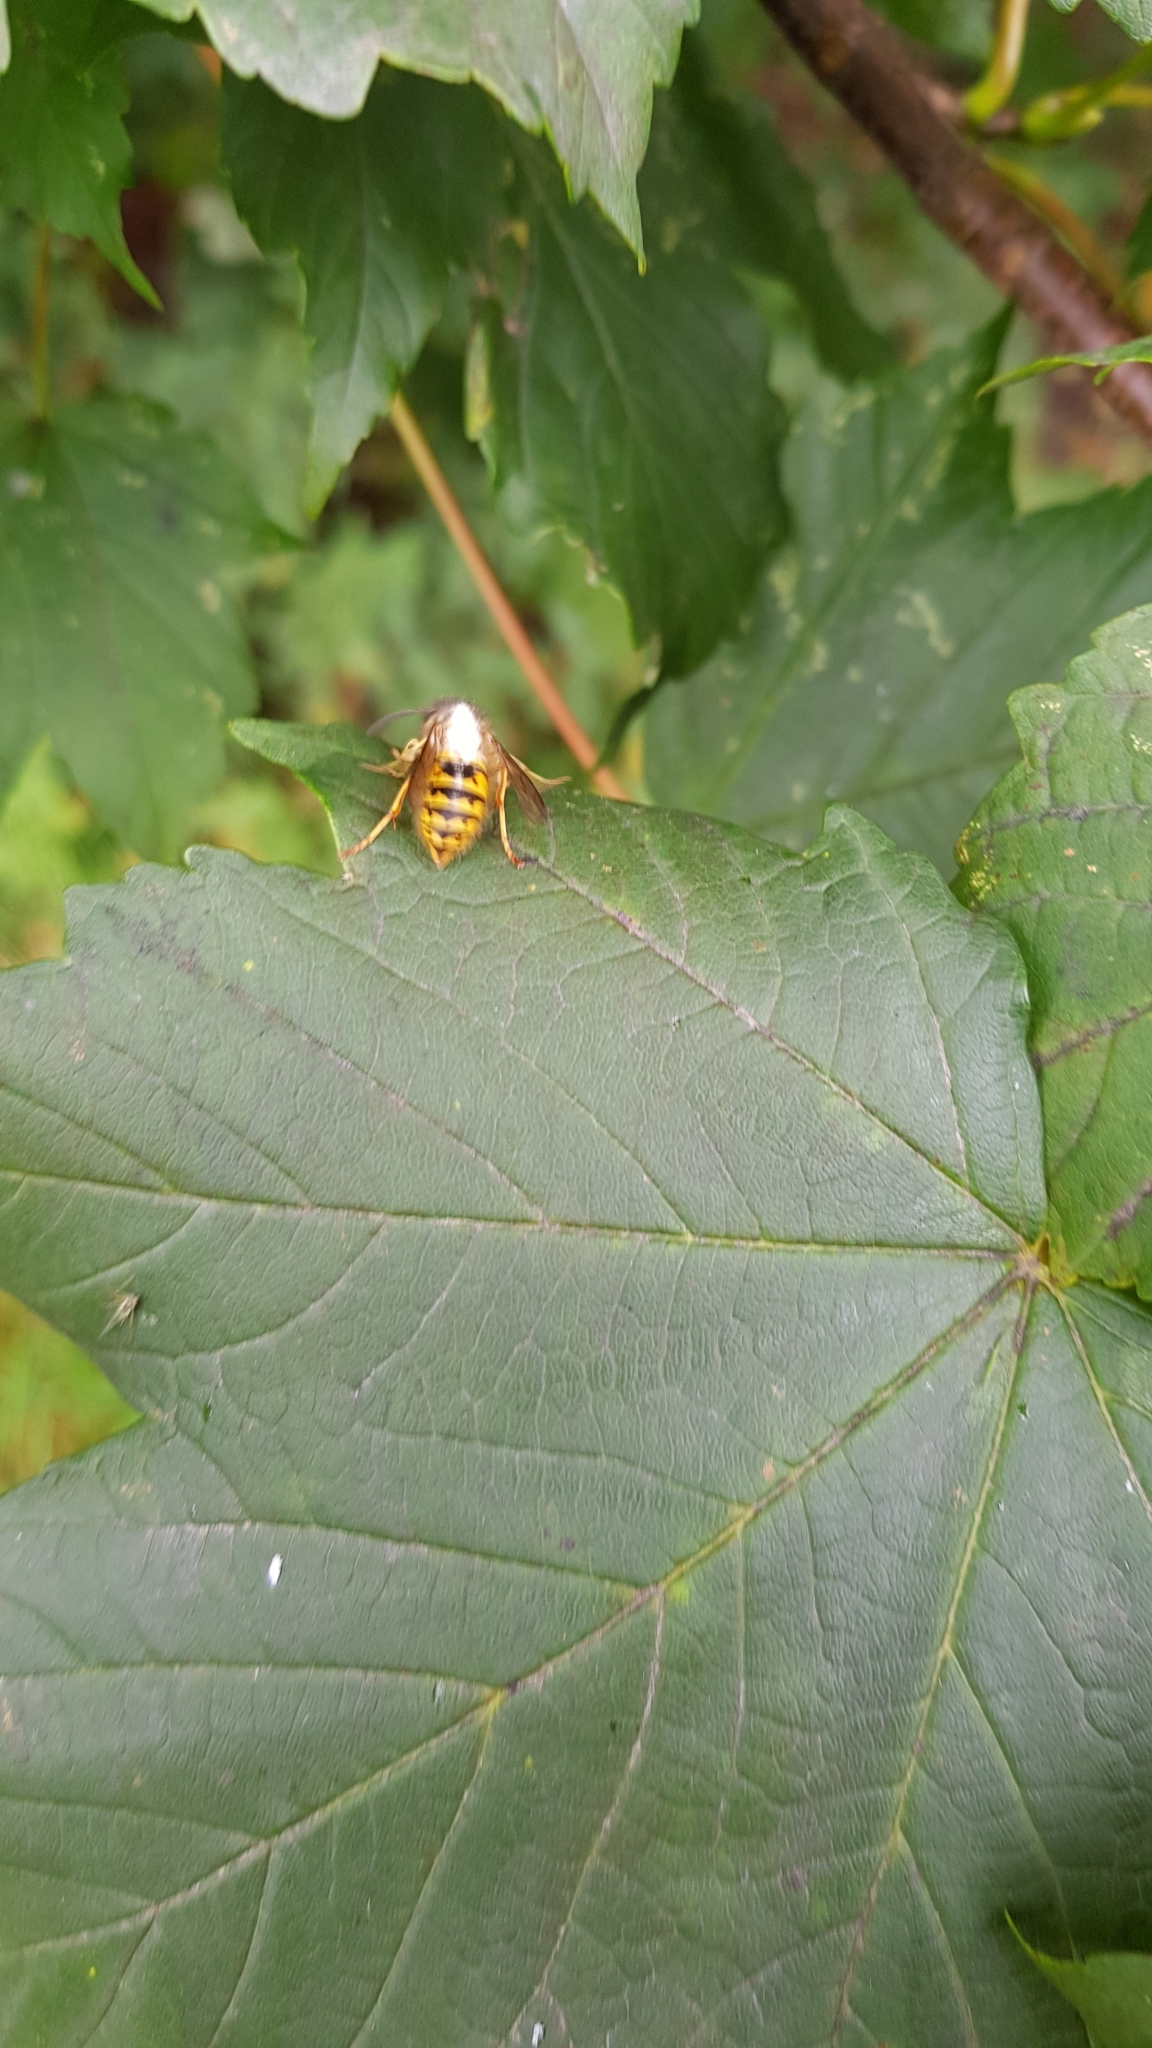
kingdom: Animalia
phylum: Arthropoda
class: Insecta
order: Hymenoptera
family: Vespidae
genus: Vespula
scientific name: Vespula vulgaris
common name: Common wasp
